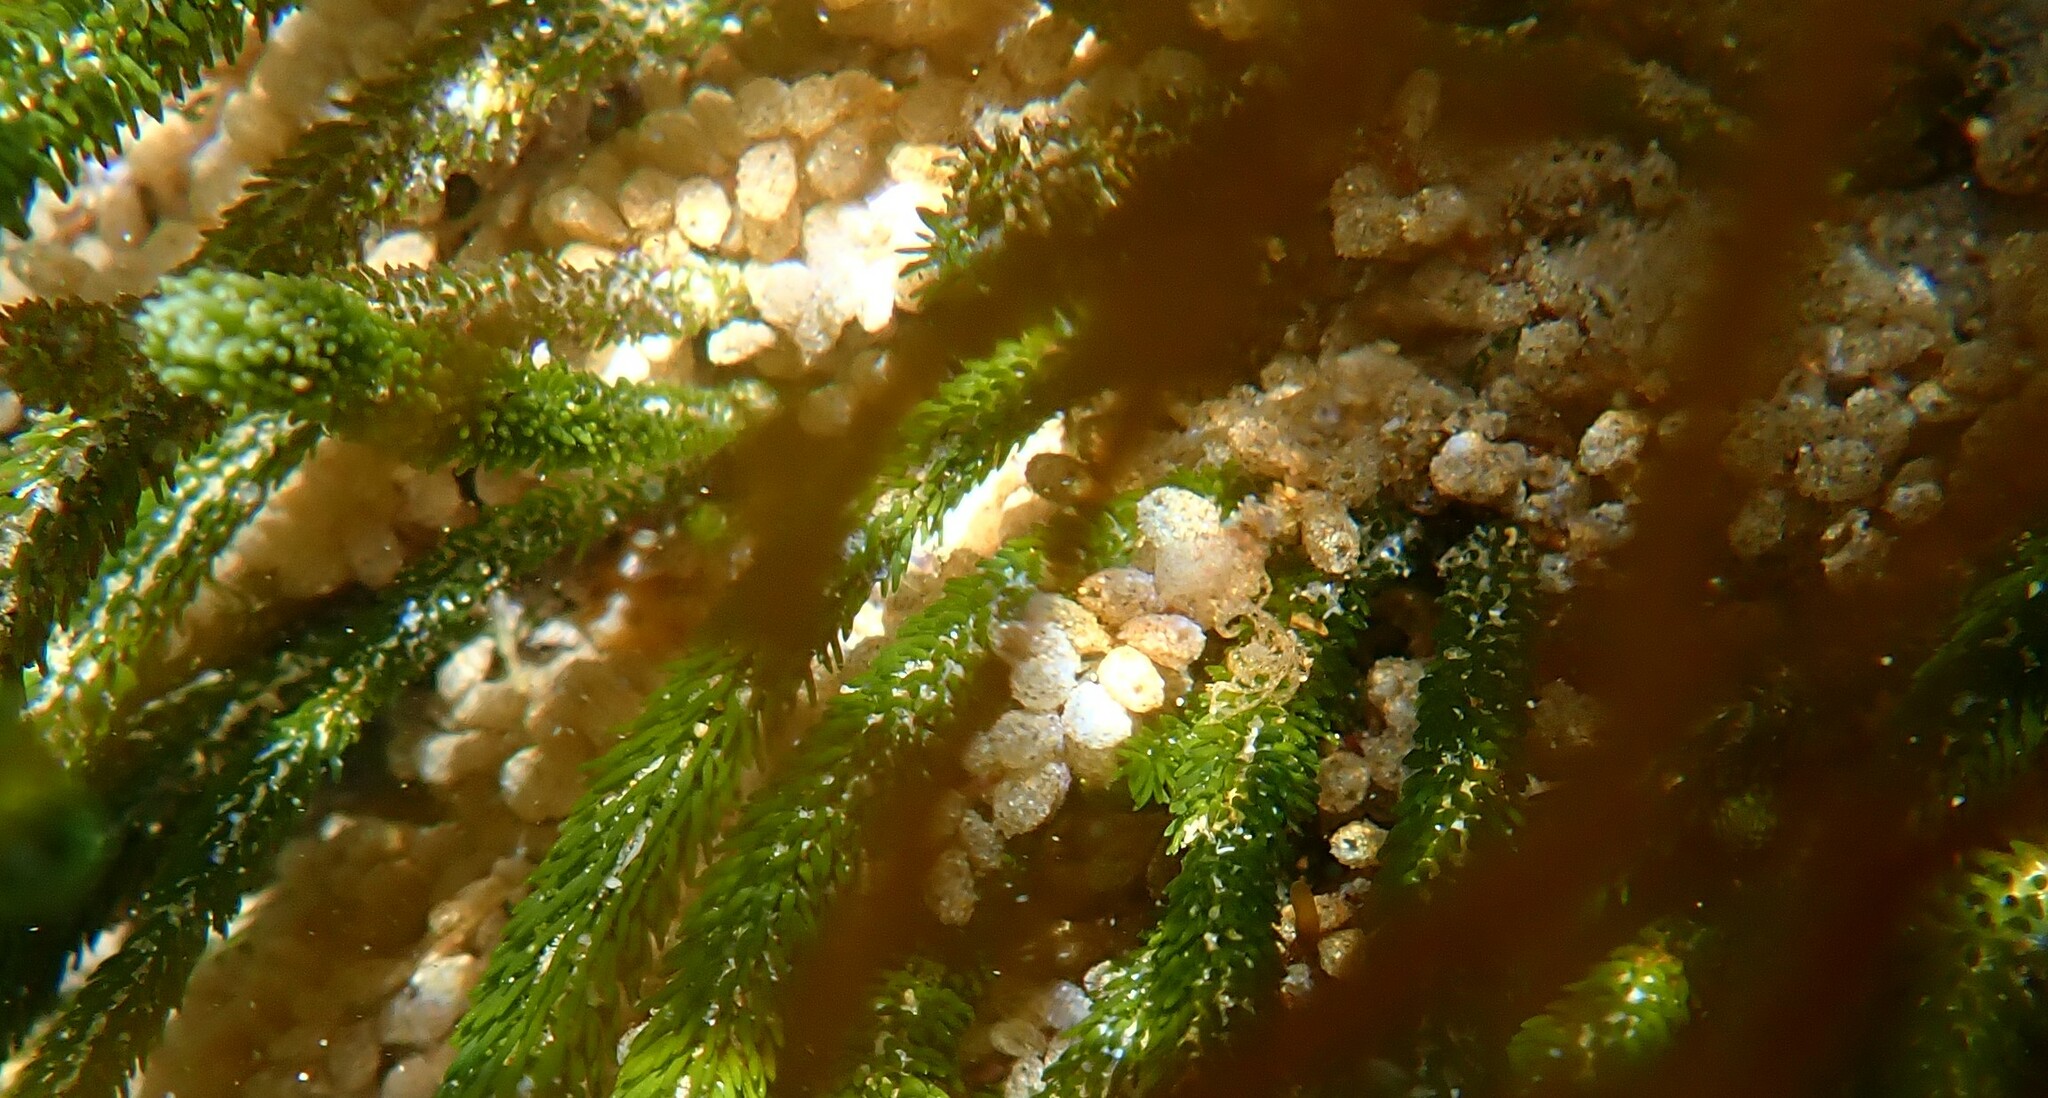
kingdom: Animalia
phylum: Chordata
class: Ascidiacea
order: Phlebobranchia
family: Perophoridae
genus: Perophora
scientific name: Perophora hutchisoni
